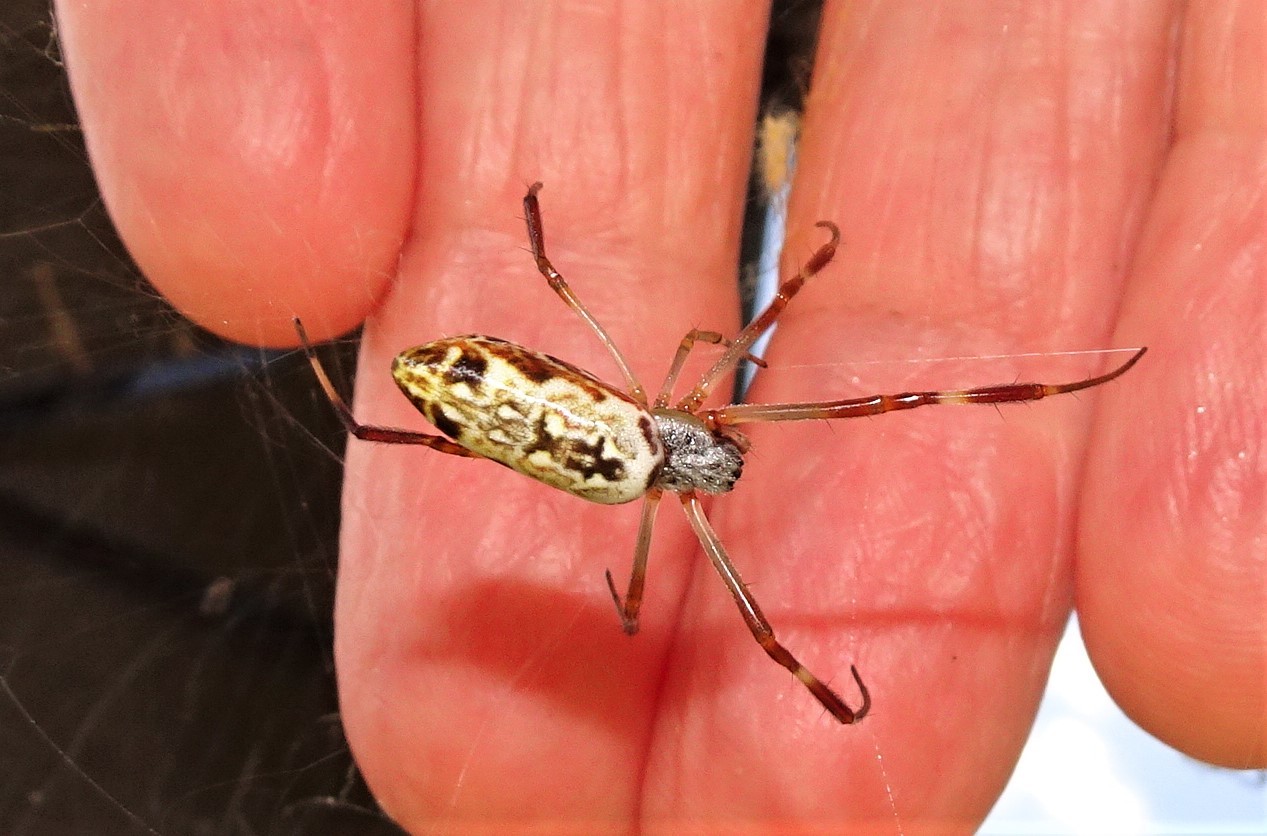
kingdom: Animalia
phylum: Arthropoda
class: Arachnida
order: Araneae
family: Araneidae
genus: Trichonephila
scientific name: Trichonephila edulis
